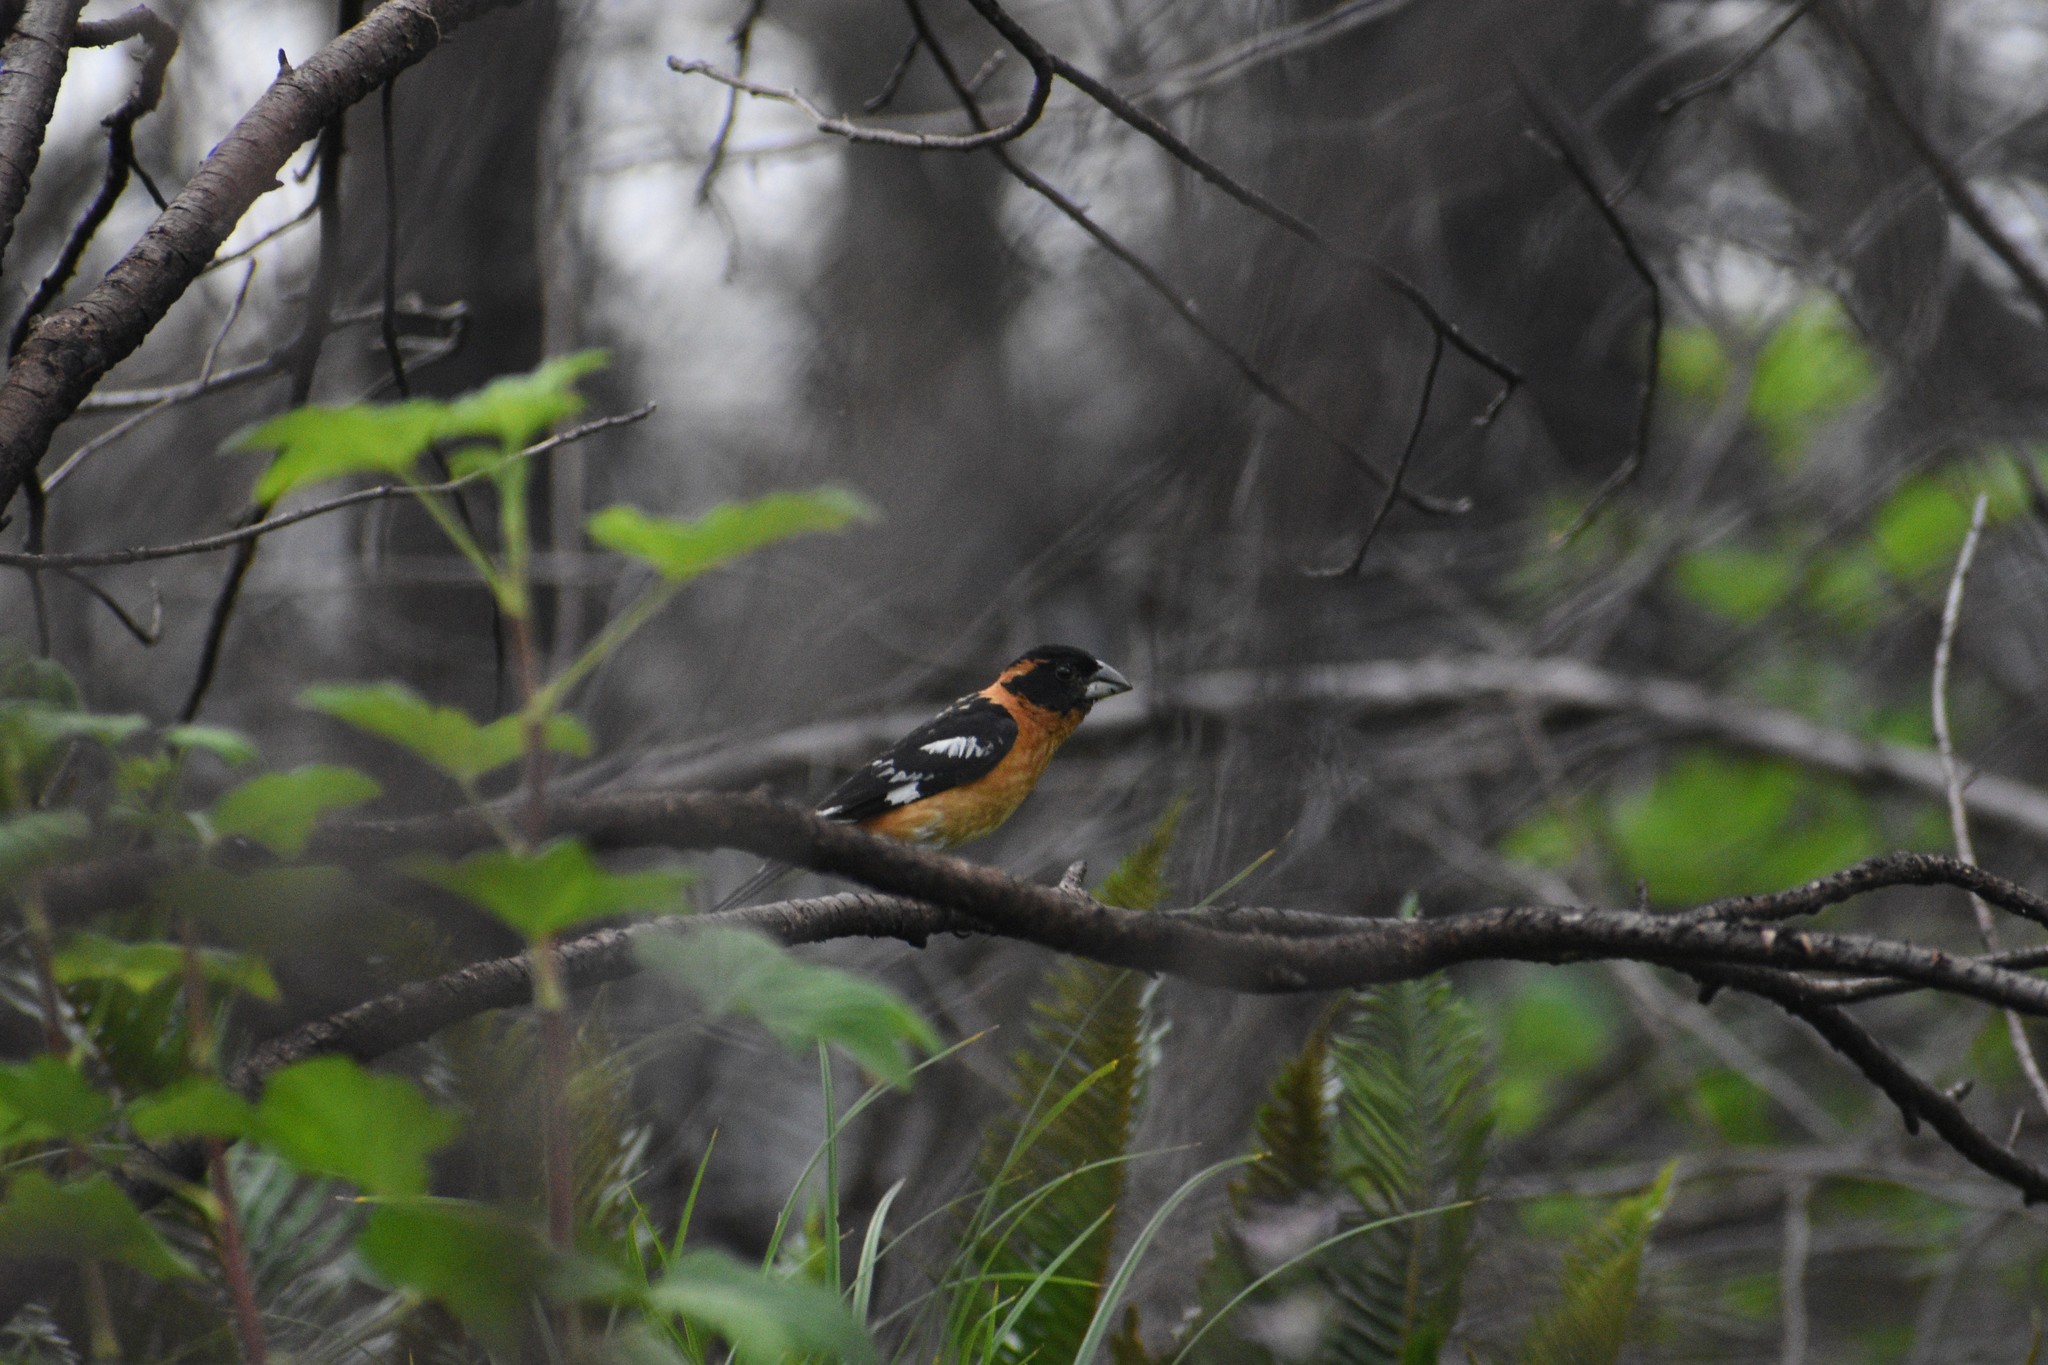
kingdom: Animalia
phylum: Chordata
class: Aves
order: Passeriformes
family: Cardinalidae
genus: Pheucticus
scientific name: Pheucticus melanocephalus
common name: Black-headed grosbeak
